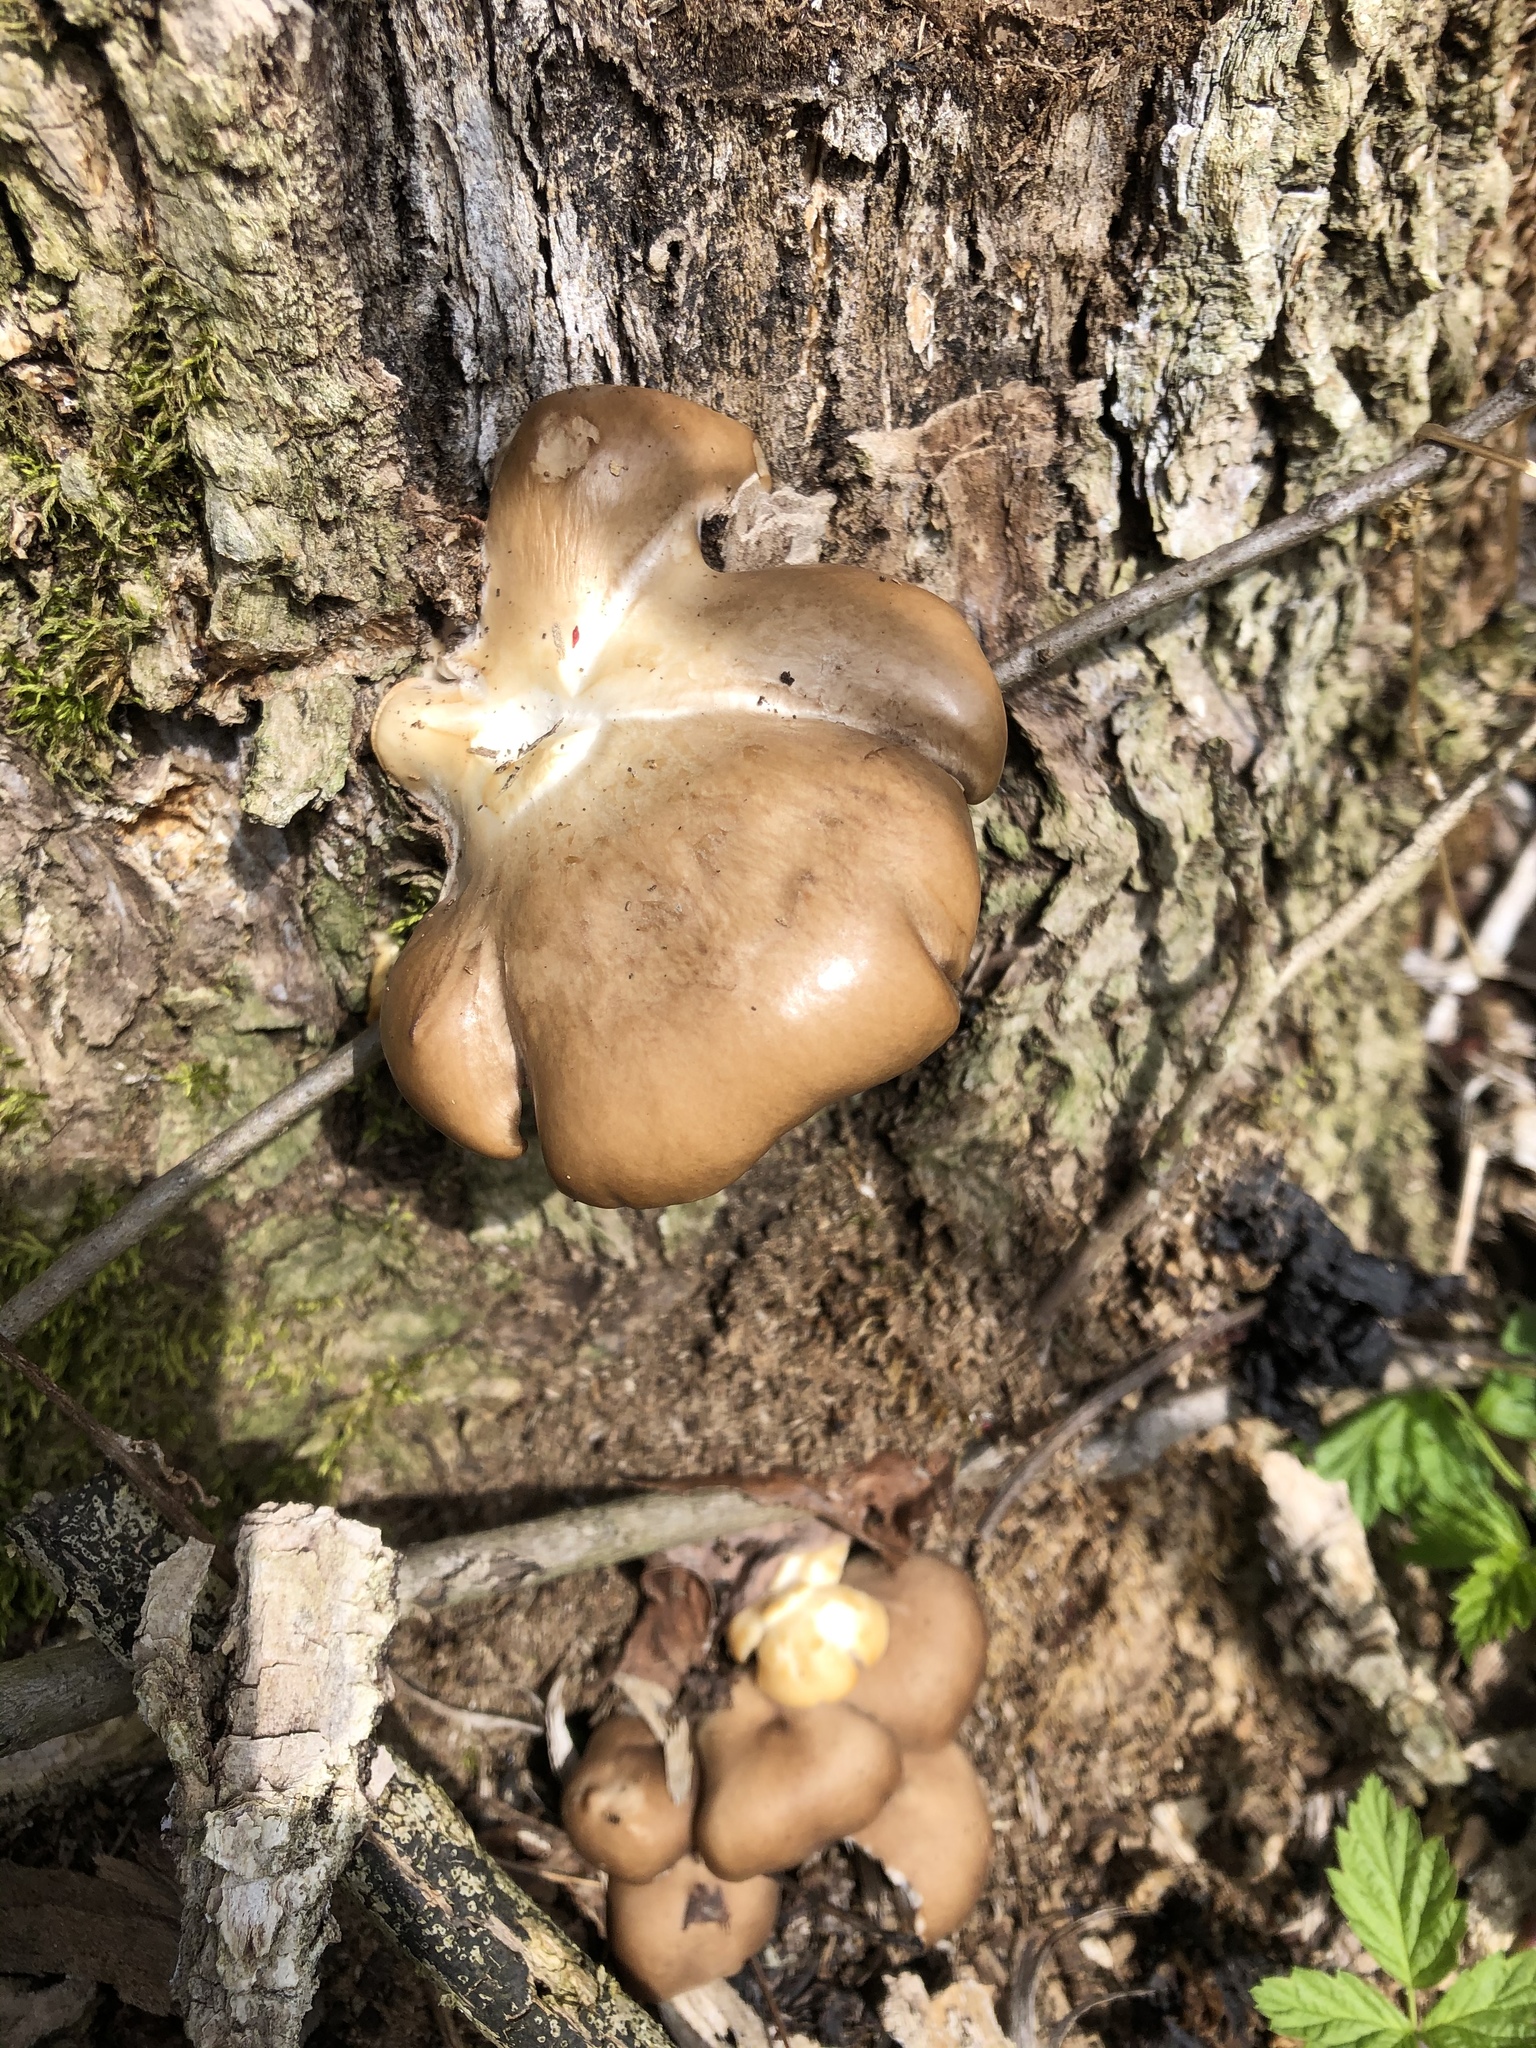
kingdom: Fungi
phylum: Basidiomycota
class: Agaricomycetes
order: Agaricales
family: Pleurotaceae
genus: Pleurotus
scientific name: Pleurotus ostreatus
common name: Oyster mushroom
